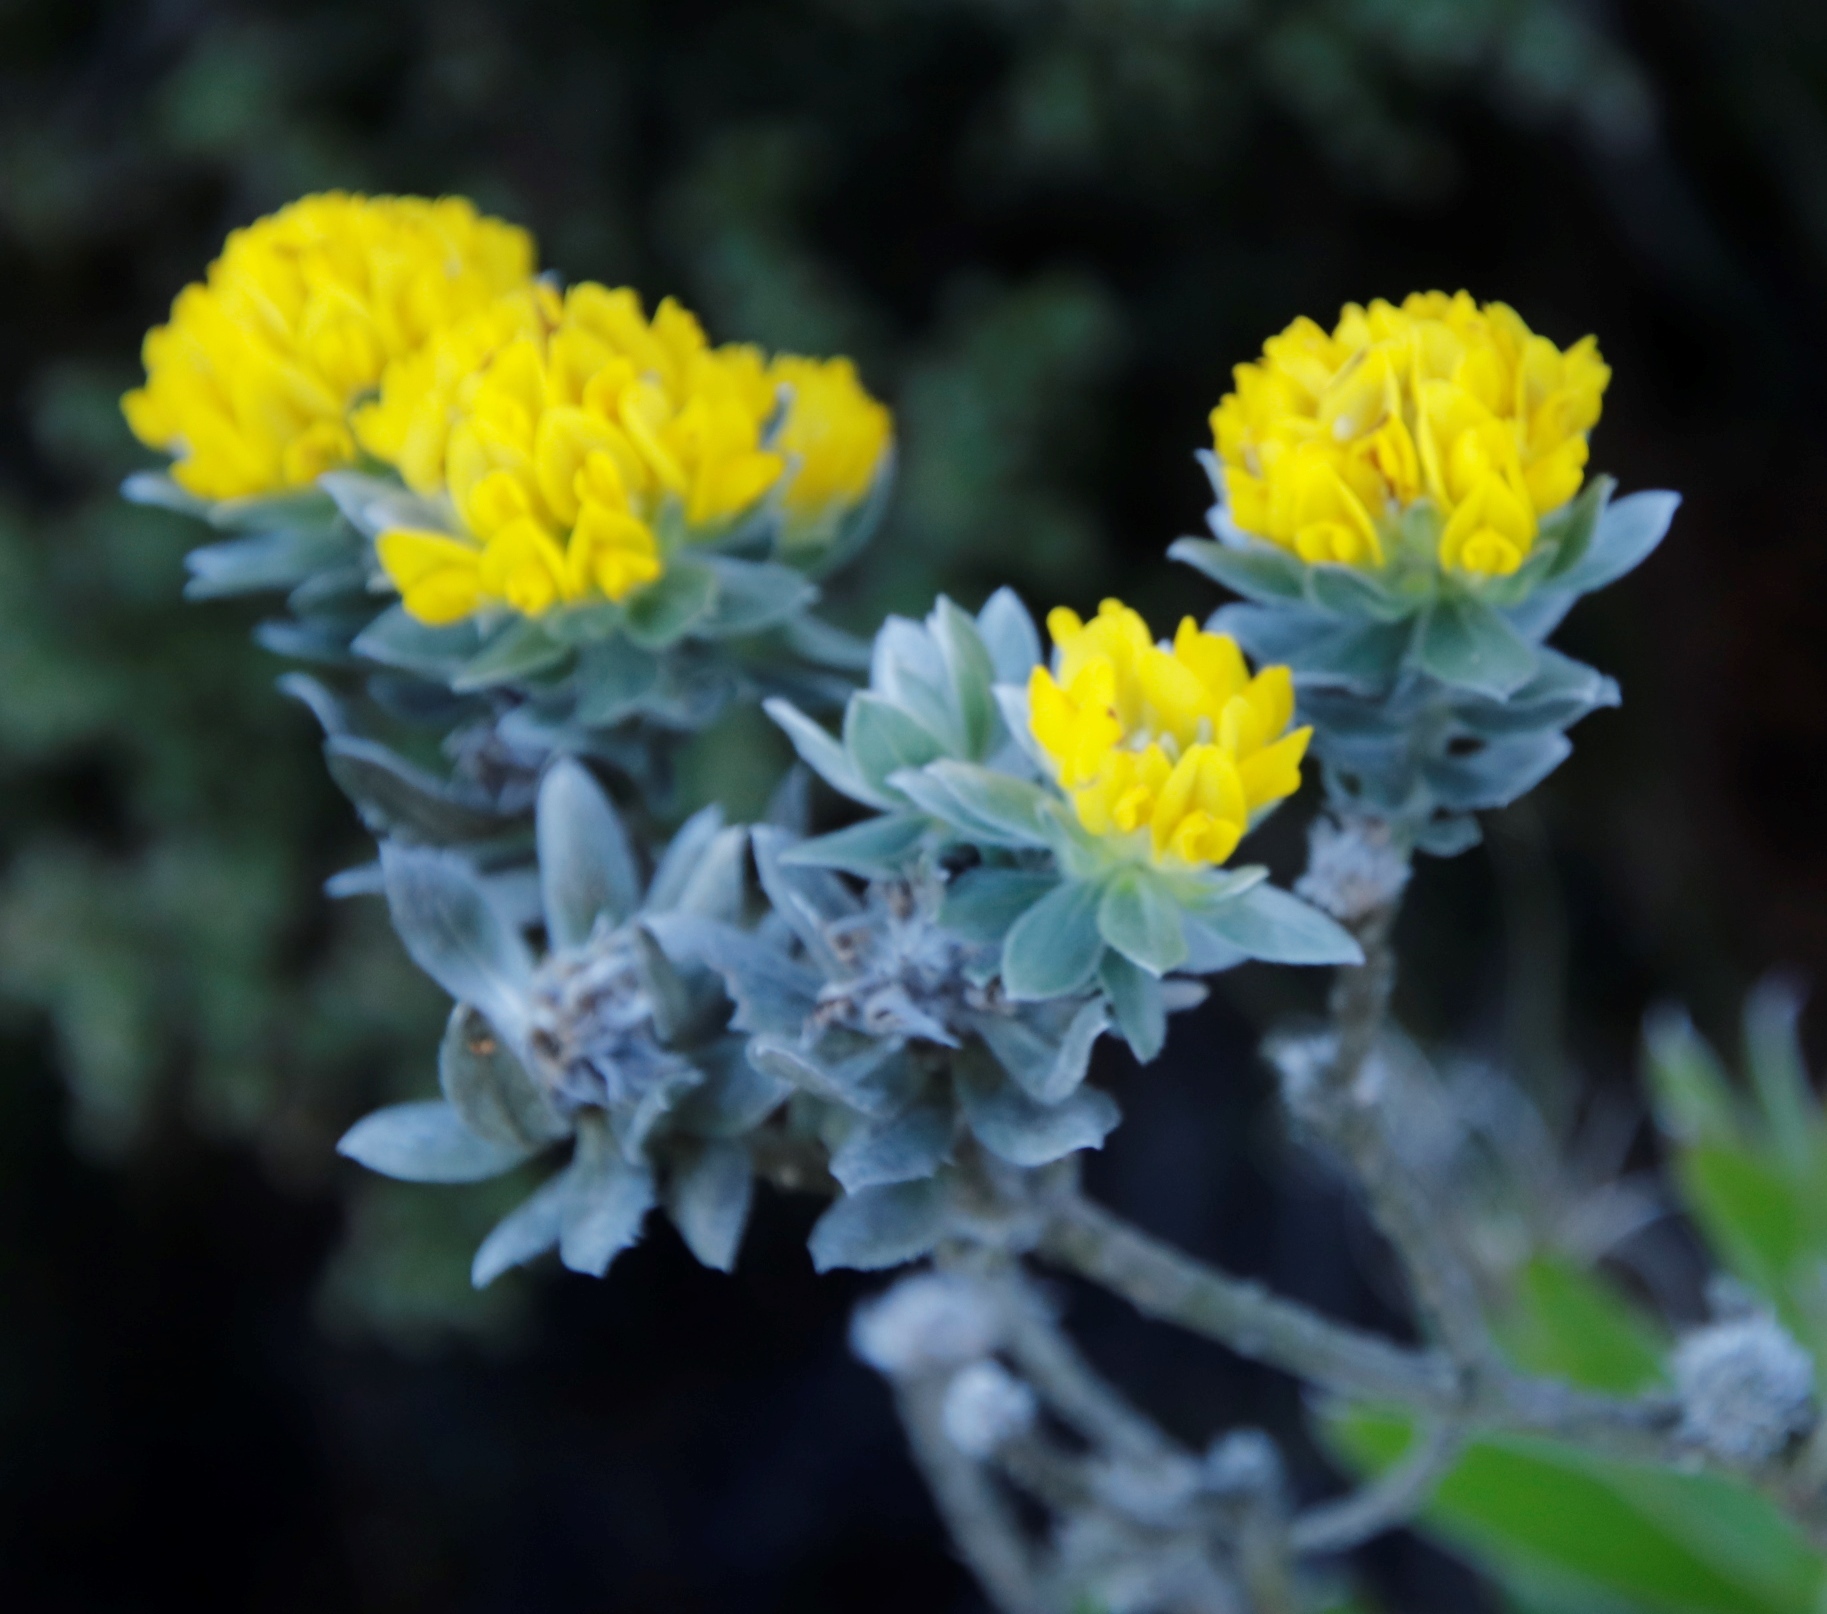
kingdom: Plantae
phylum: Tracheophyta
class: Magnoliopsida
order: Fabales
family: Fabaceae
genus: Xiphotheca
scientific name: Xiphotheca fruticosa
